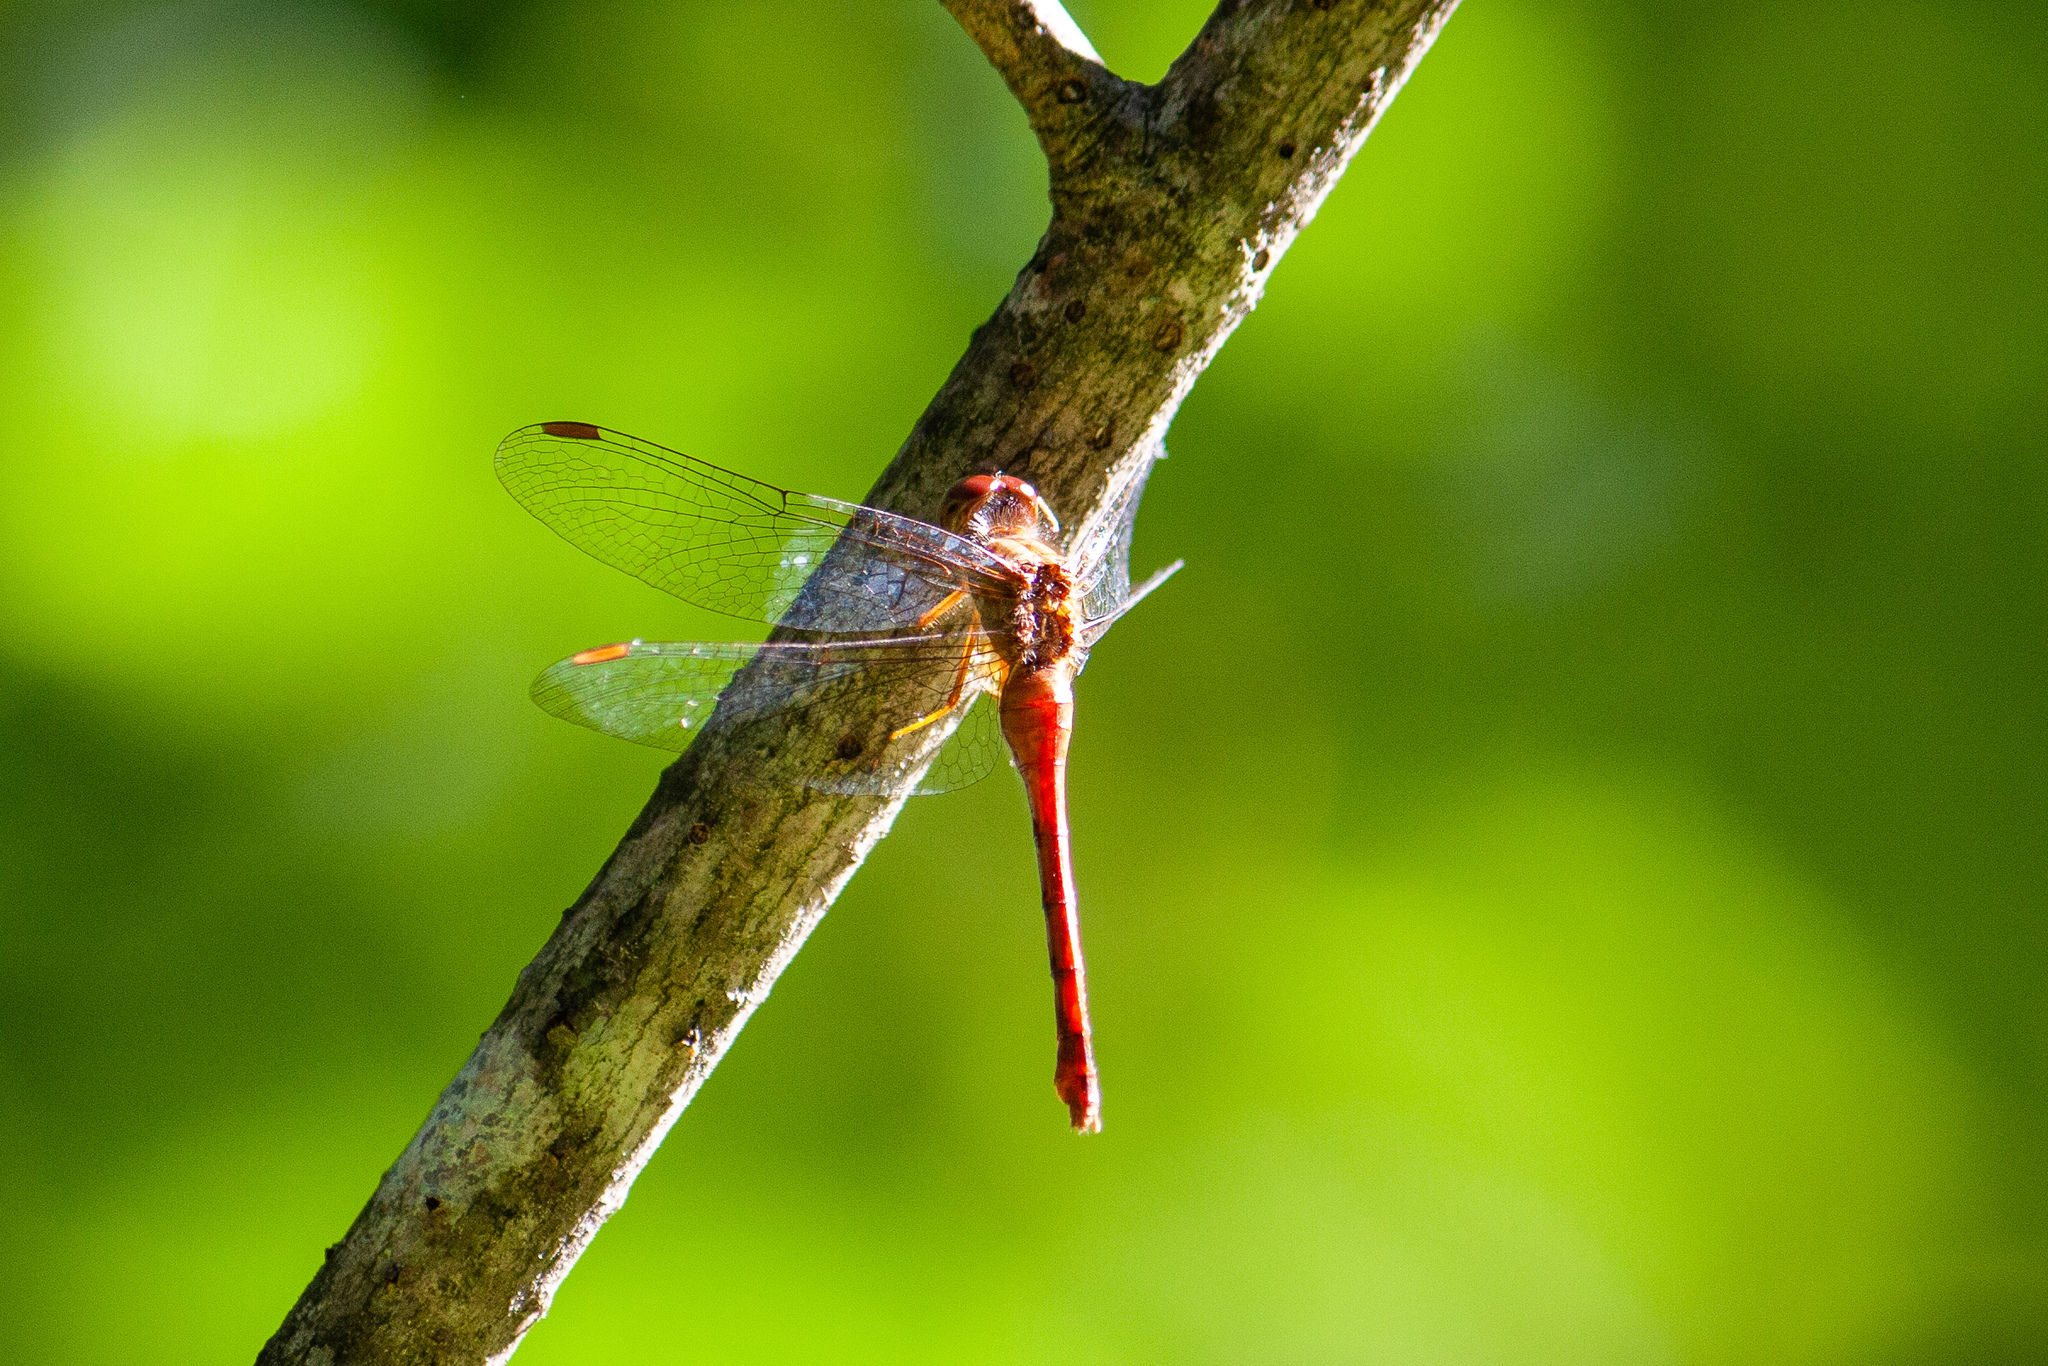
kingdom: Animalia
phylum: Arthropoda
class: Insecta
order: Odonata
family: Libellulidae
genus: Sympetrum
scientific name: Sympetrum vicinum
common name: Autumn meadowhawk
